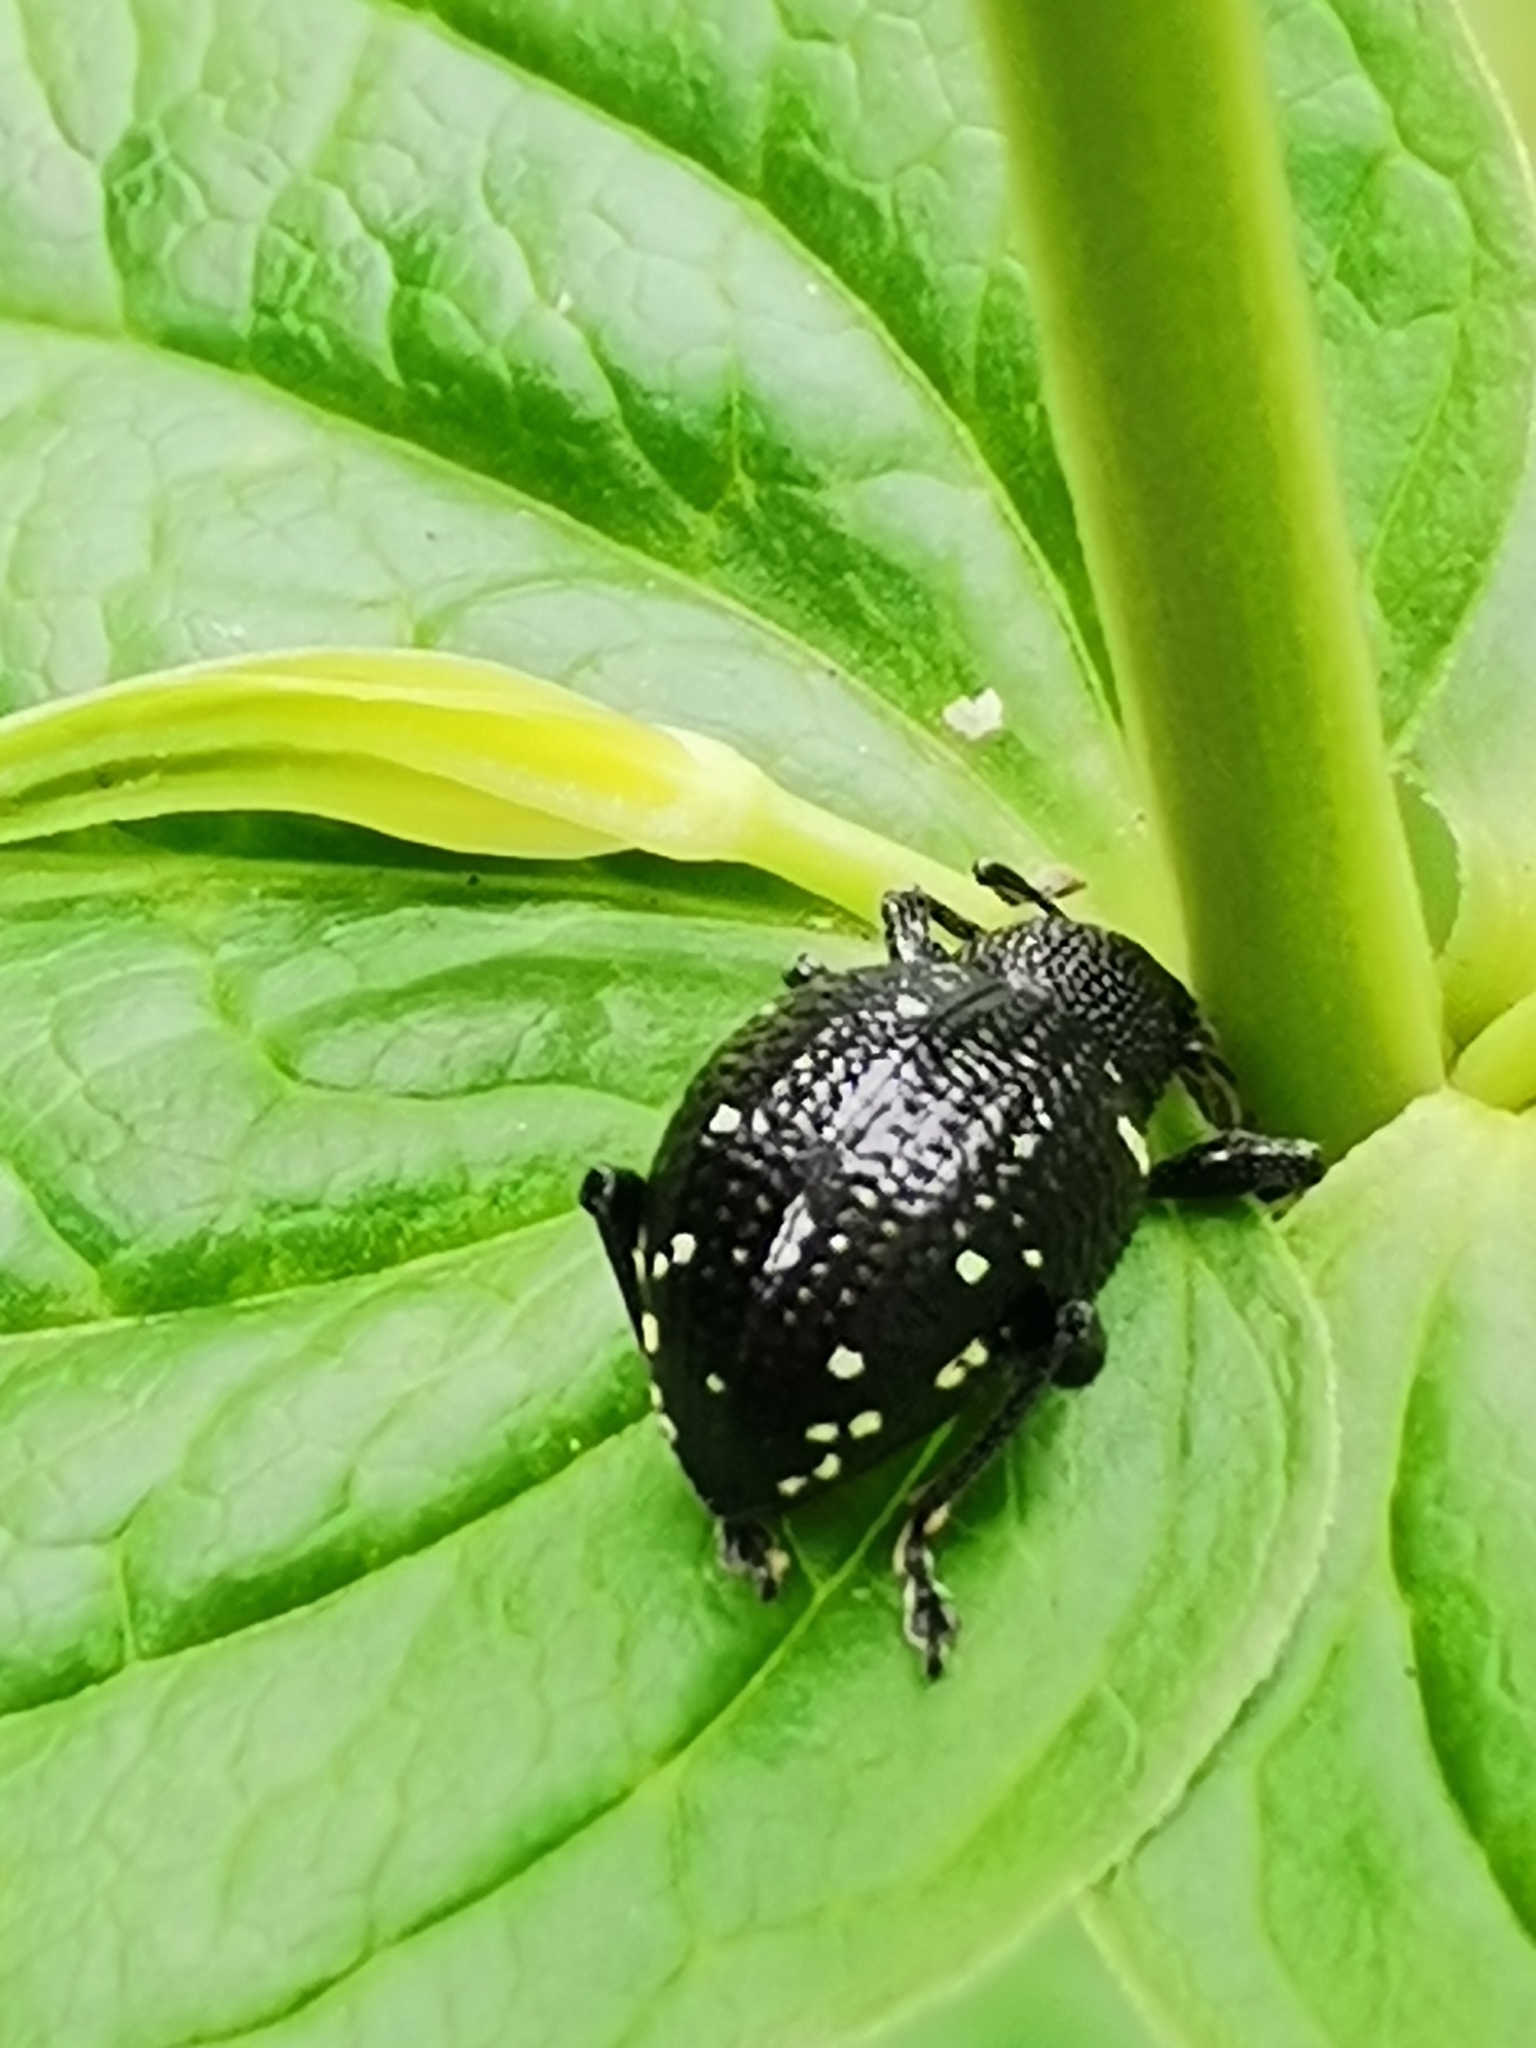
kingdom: Animalia
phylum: Arthropoda
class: Insecta
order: Coleoptera
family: Curculionidae
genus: Otiorhynchus
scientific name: Otiorhynchus gemmatus
